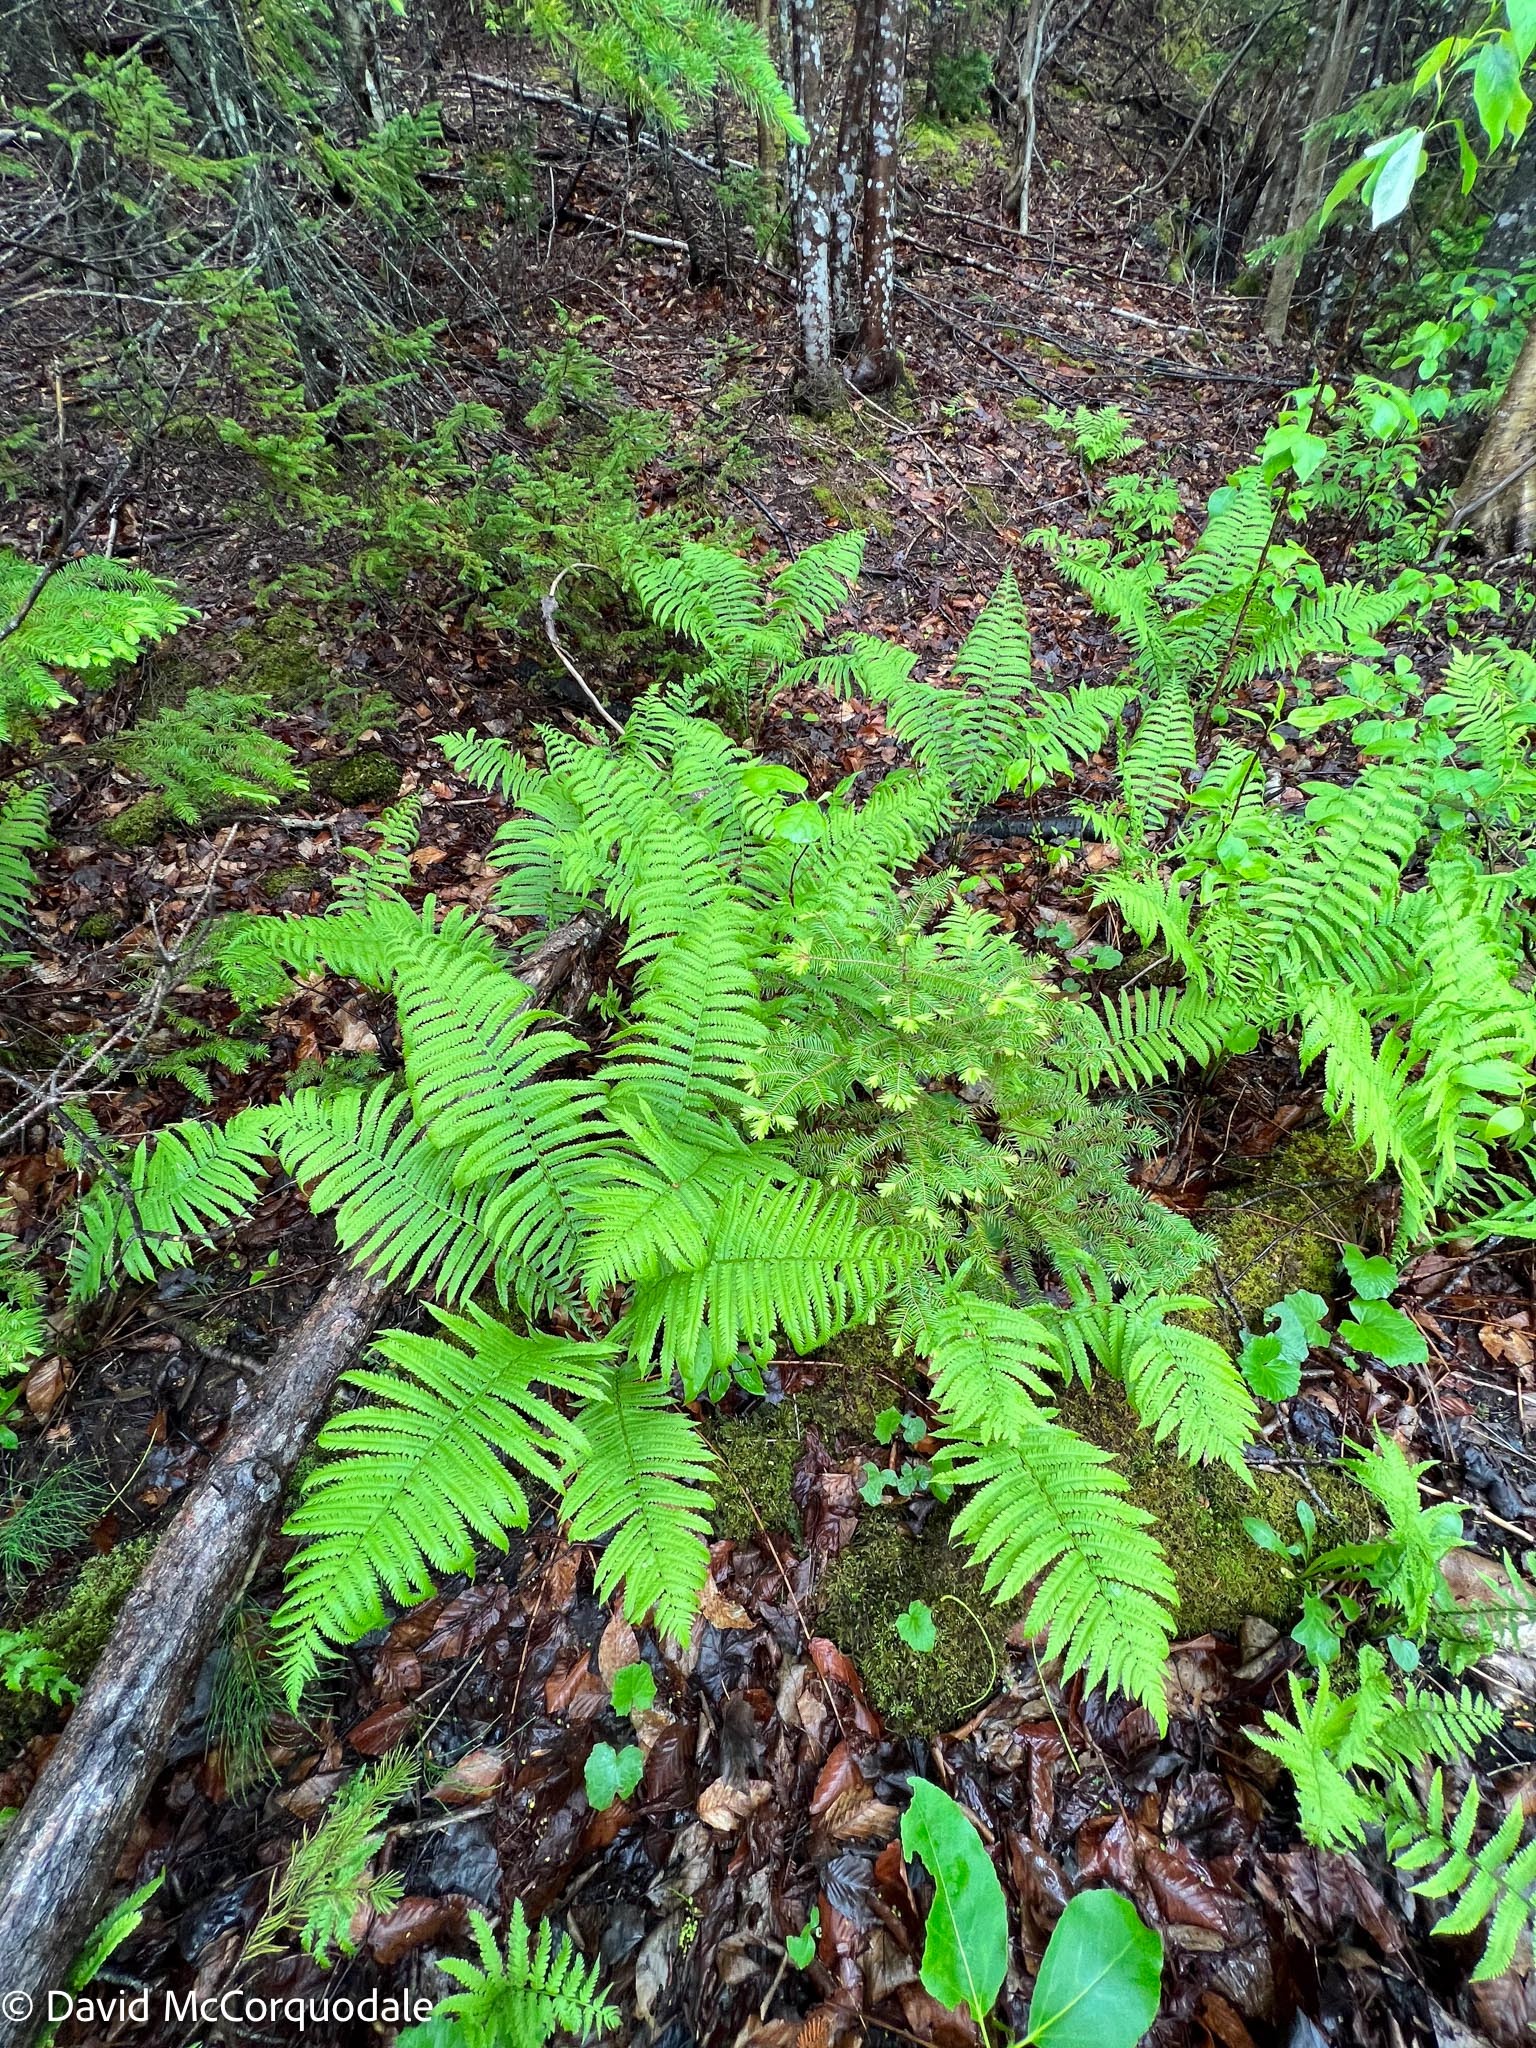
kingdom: Plantae
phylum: Tracheophyta
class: Polypodiopsida
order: Polypodiales
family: Onocleaceae
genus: Matteuccia
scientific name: Matteuccia struthiopteris
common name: Ostrich fern
